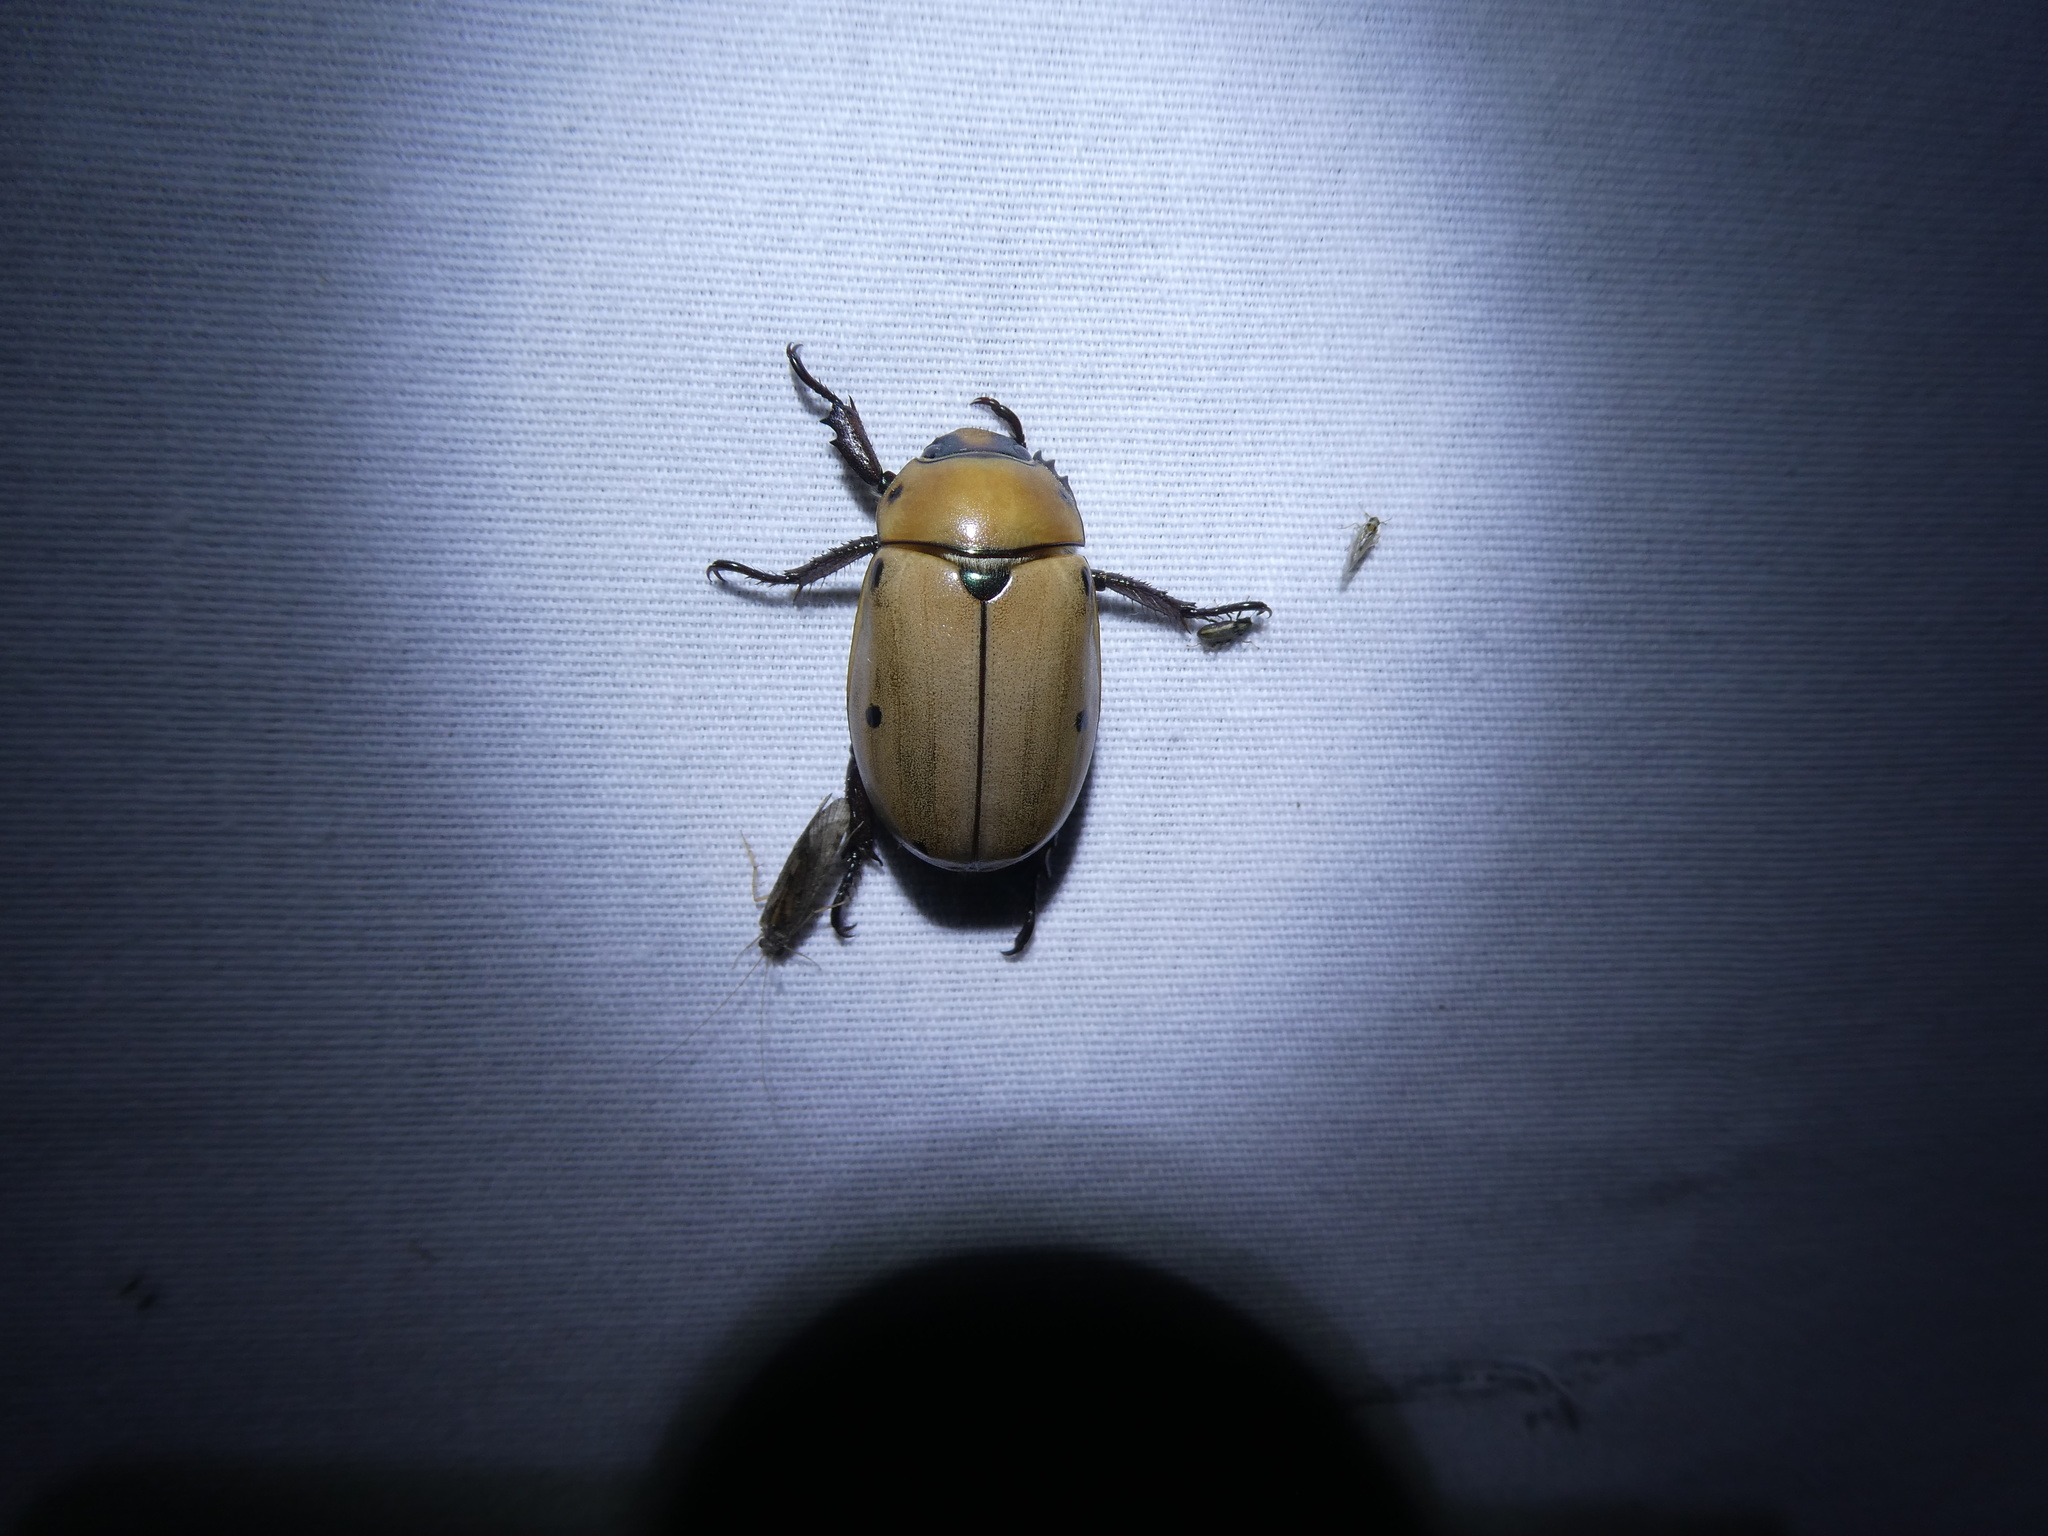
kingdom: Animalia
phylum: Arthropoda
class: Insecta
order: Coleoptera
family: Scarabaeidae
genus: Pelidnota
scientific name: Pelidnota punctata
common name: Grapevine beetle
